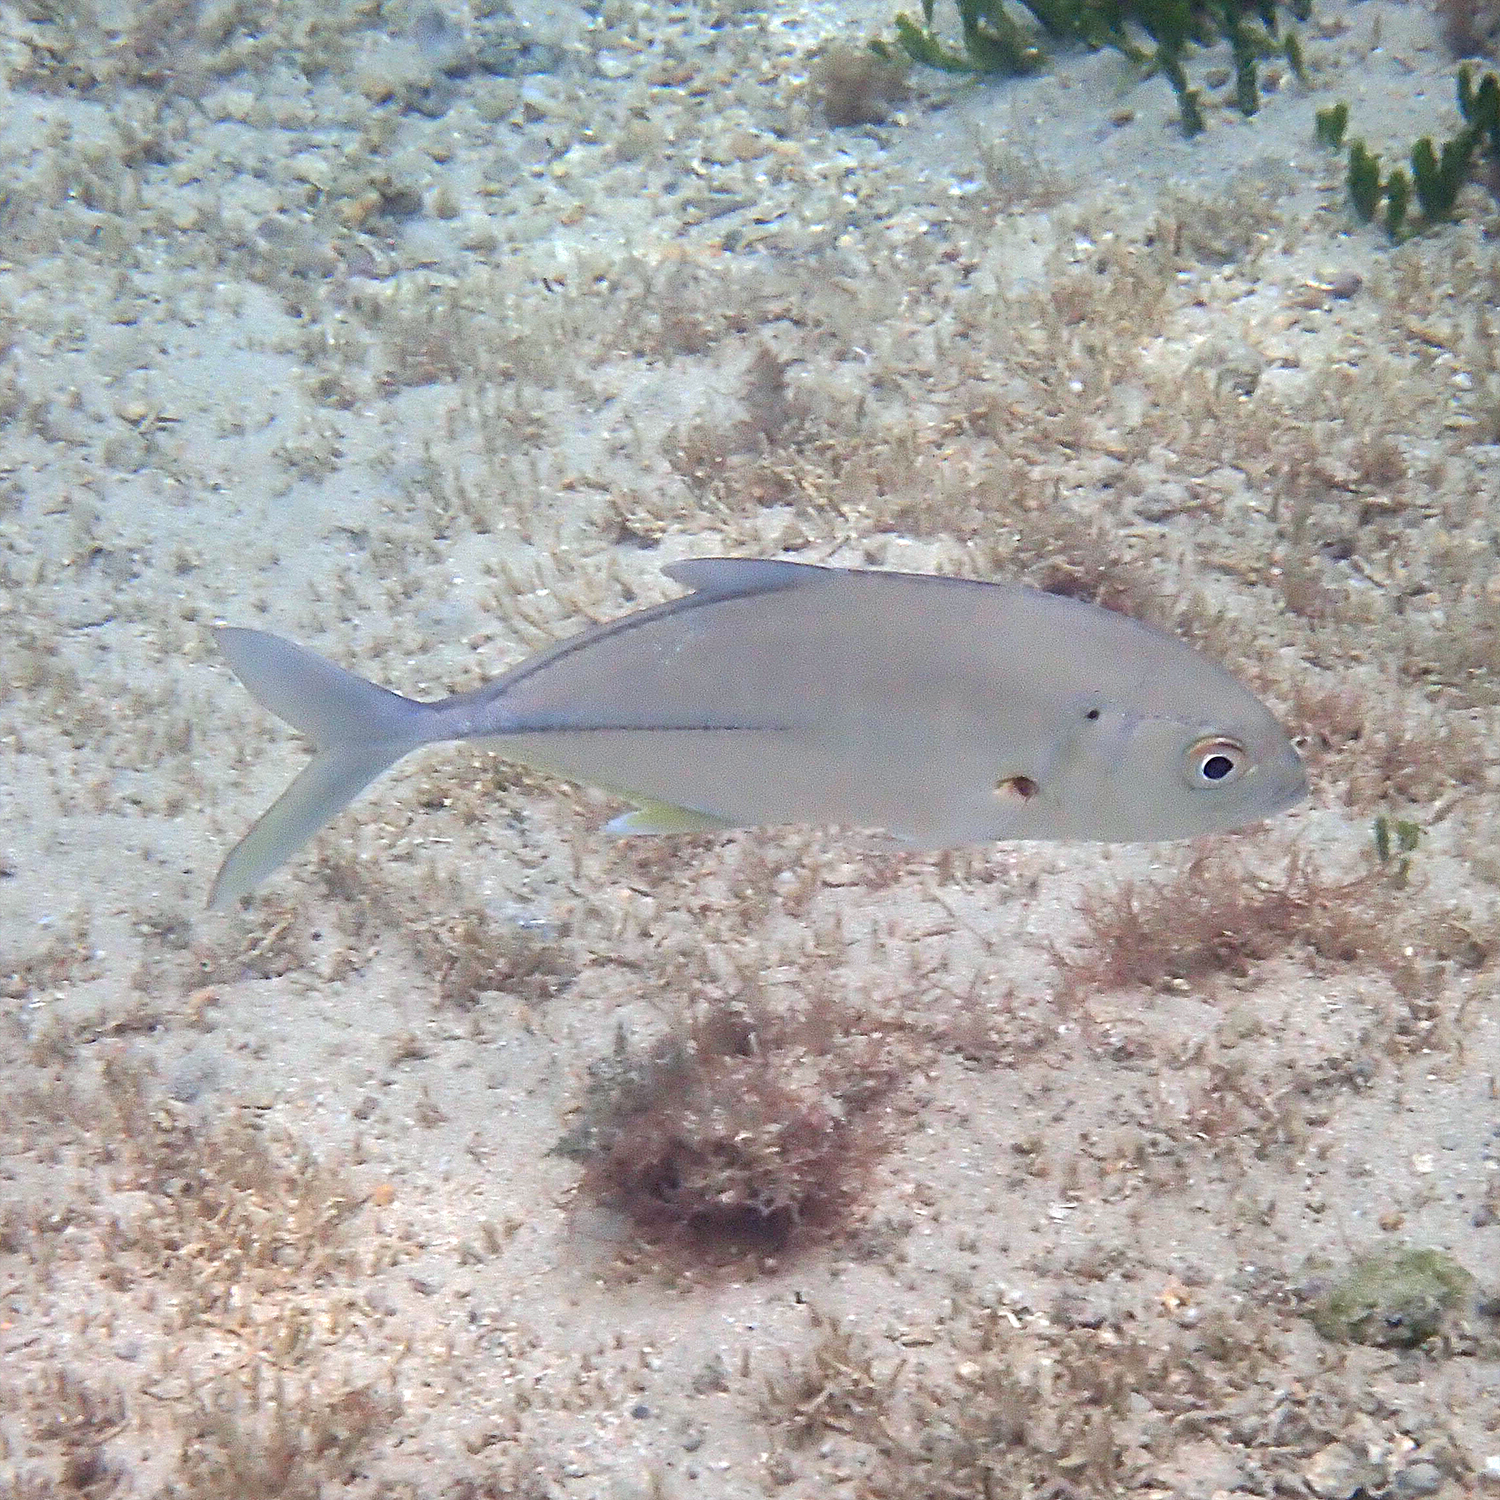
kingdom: Animalia
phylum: Chordata
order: Perciformes
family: Carangidae
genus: Caranx
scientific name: Caranx sexfasciatus
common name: Bigeye trevally
